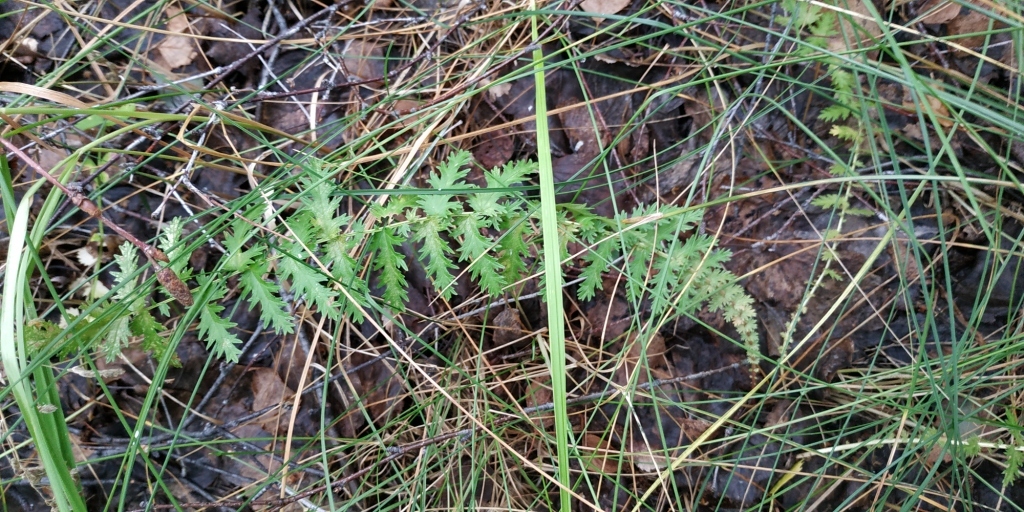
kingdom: Plantae
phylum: Tracheophyta
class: Magnoliopsida
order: Rosales
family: Rosaceae
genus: Filipendula
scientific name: Filipendula vulgaris
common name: Dropwort
